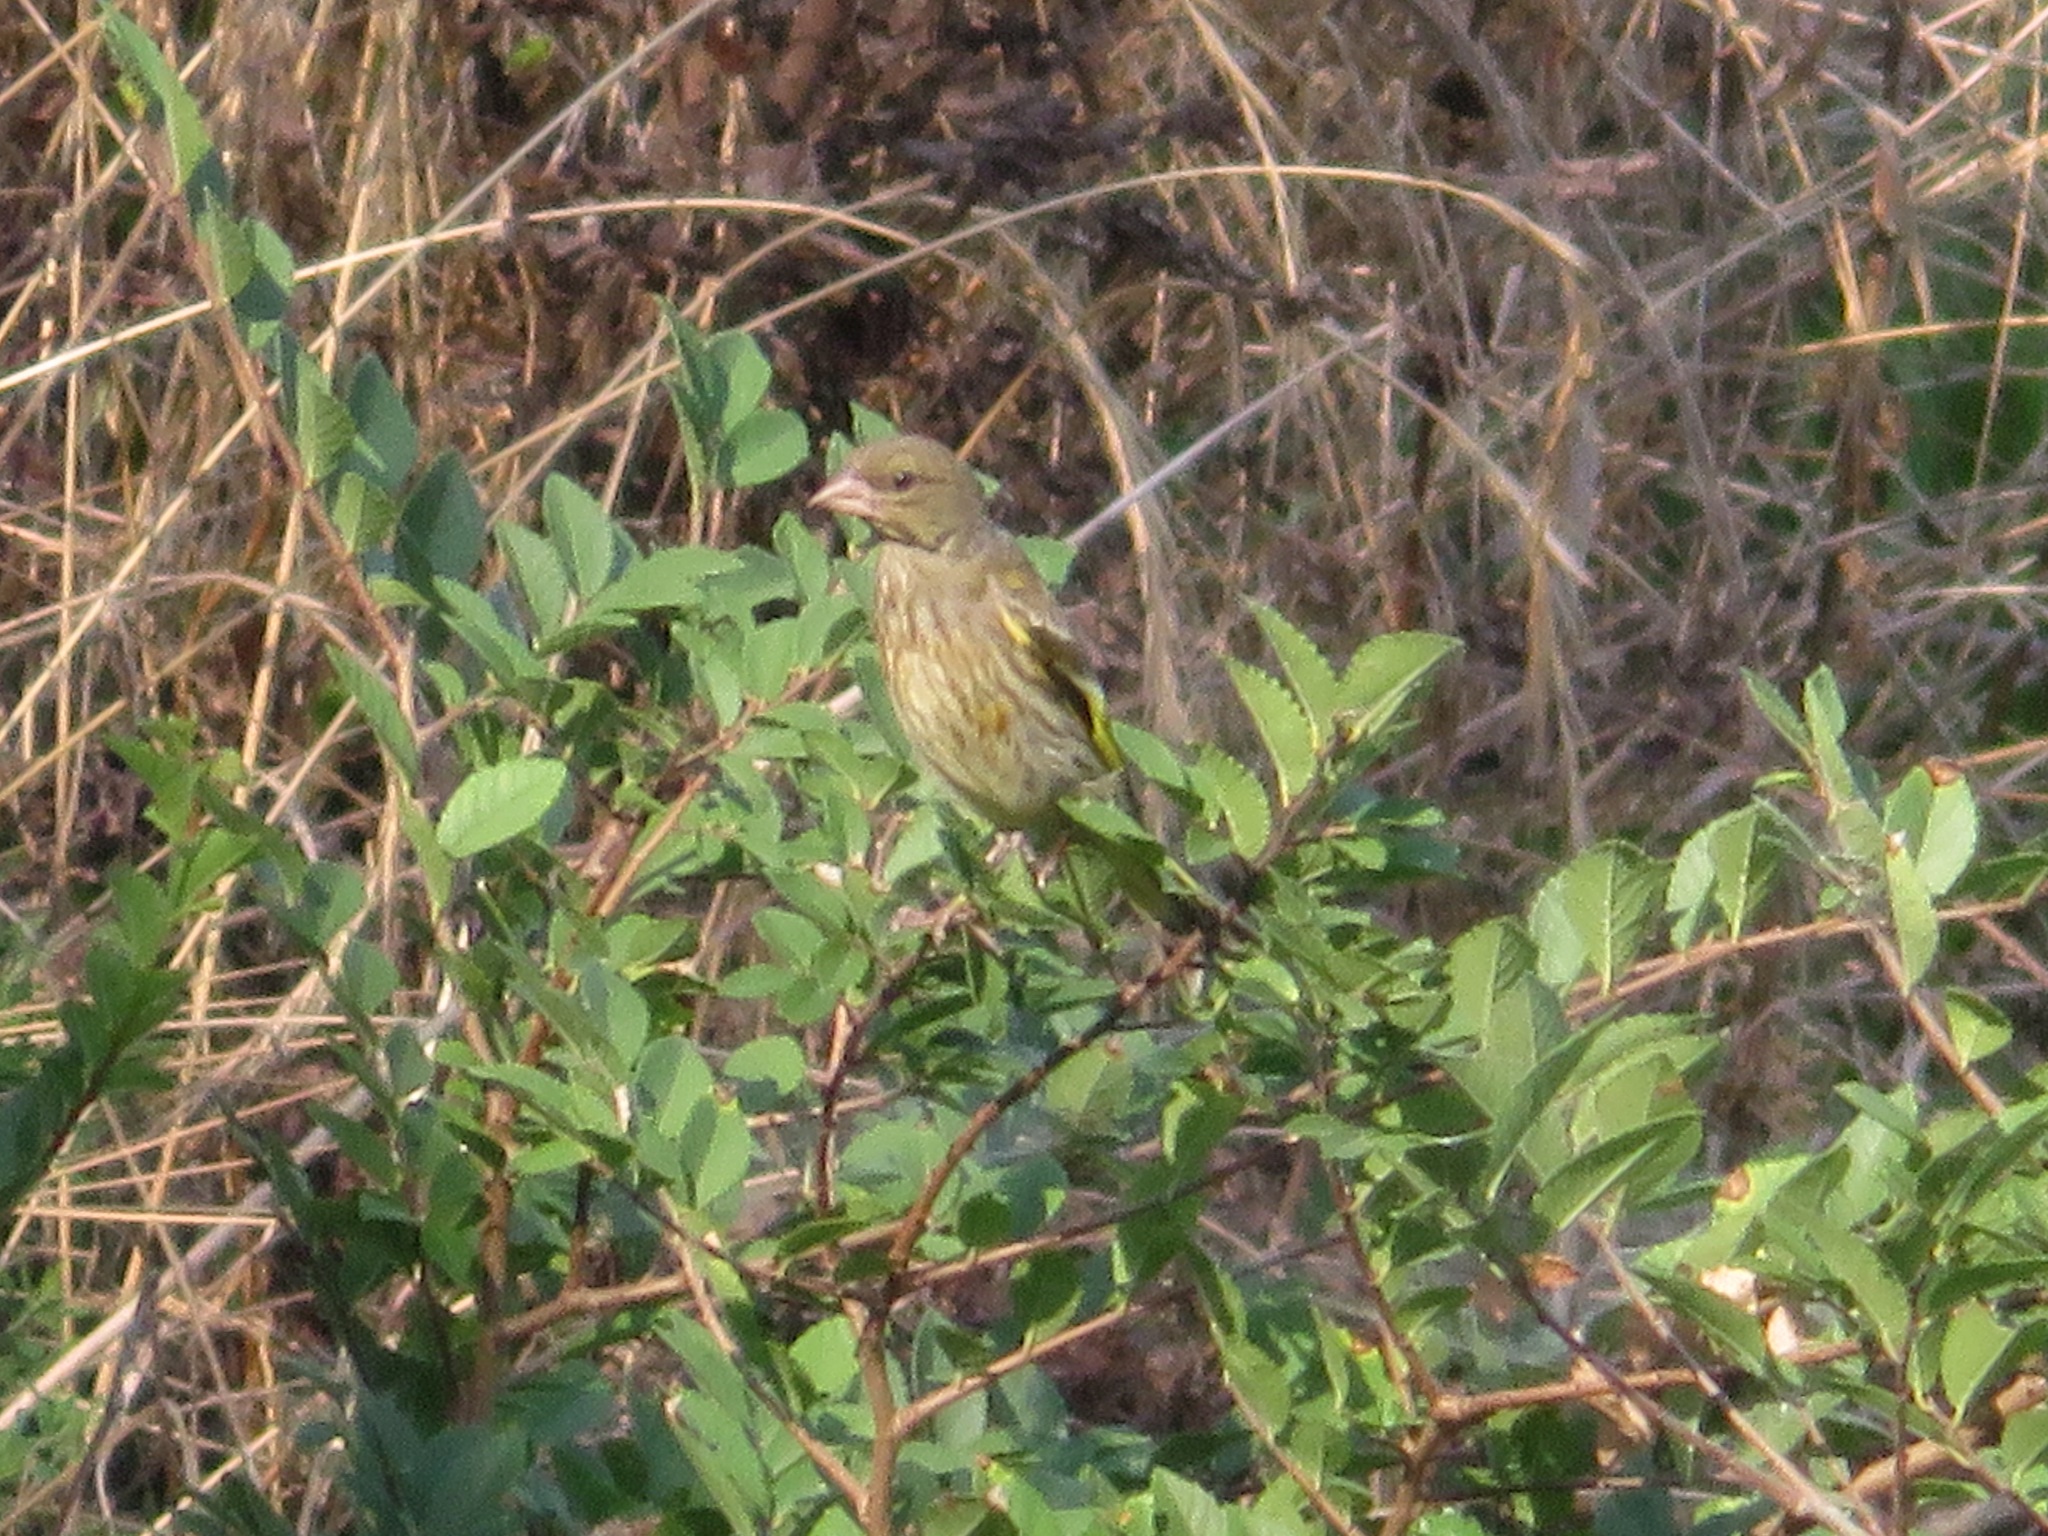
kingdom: Plantae
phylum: Tracheophyta
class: Liliopsida
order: Poales
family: Poaceae
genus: Chloris
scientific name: Chloris sinica
